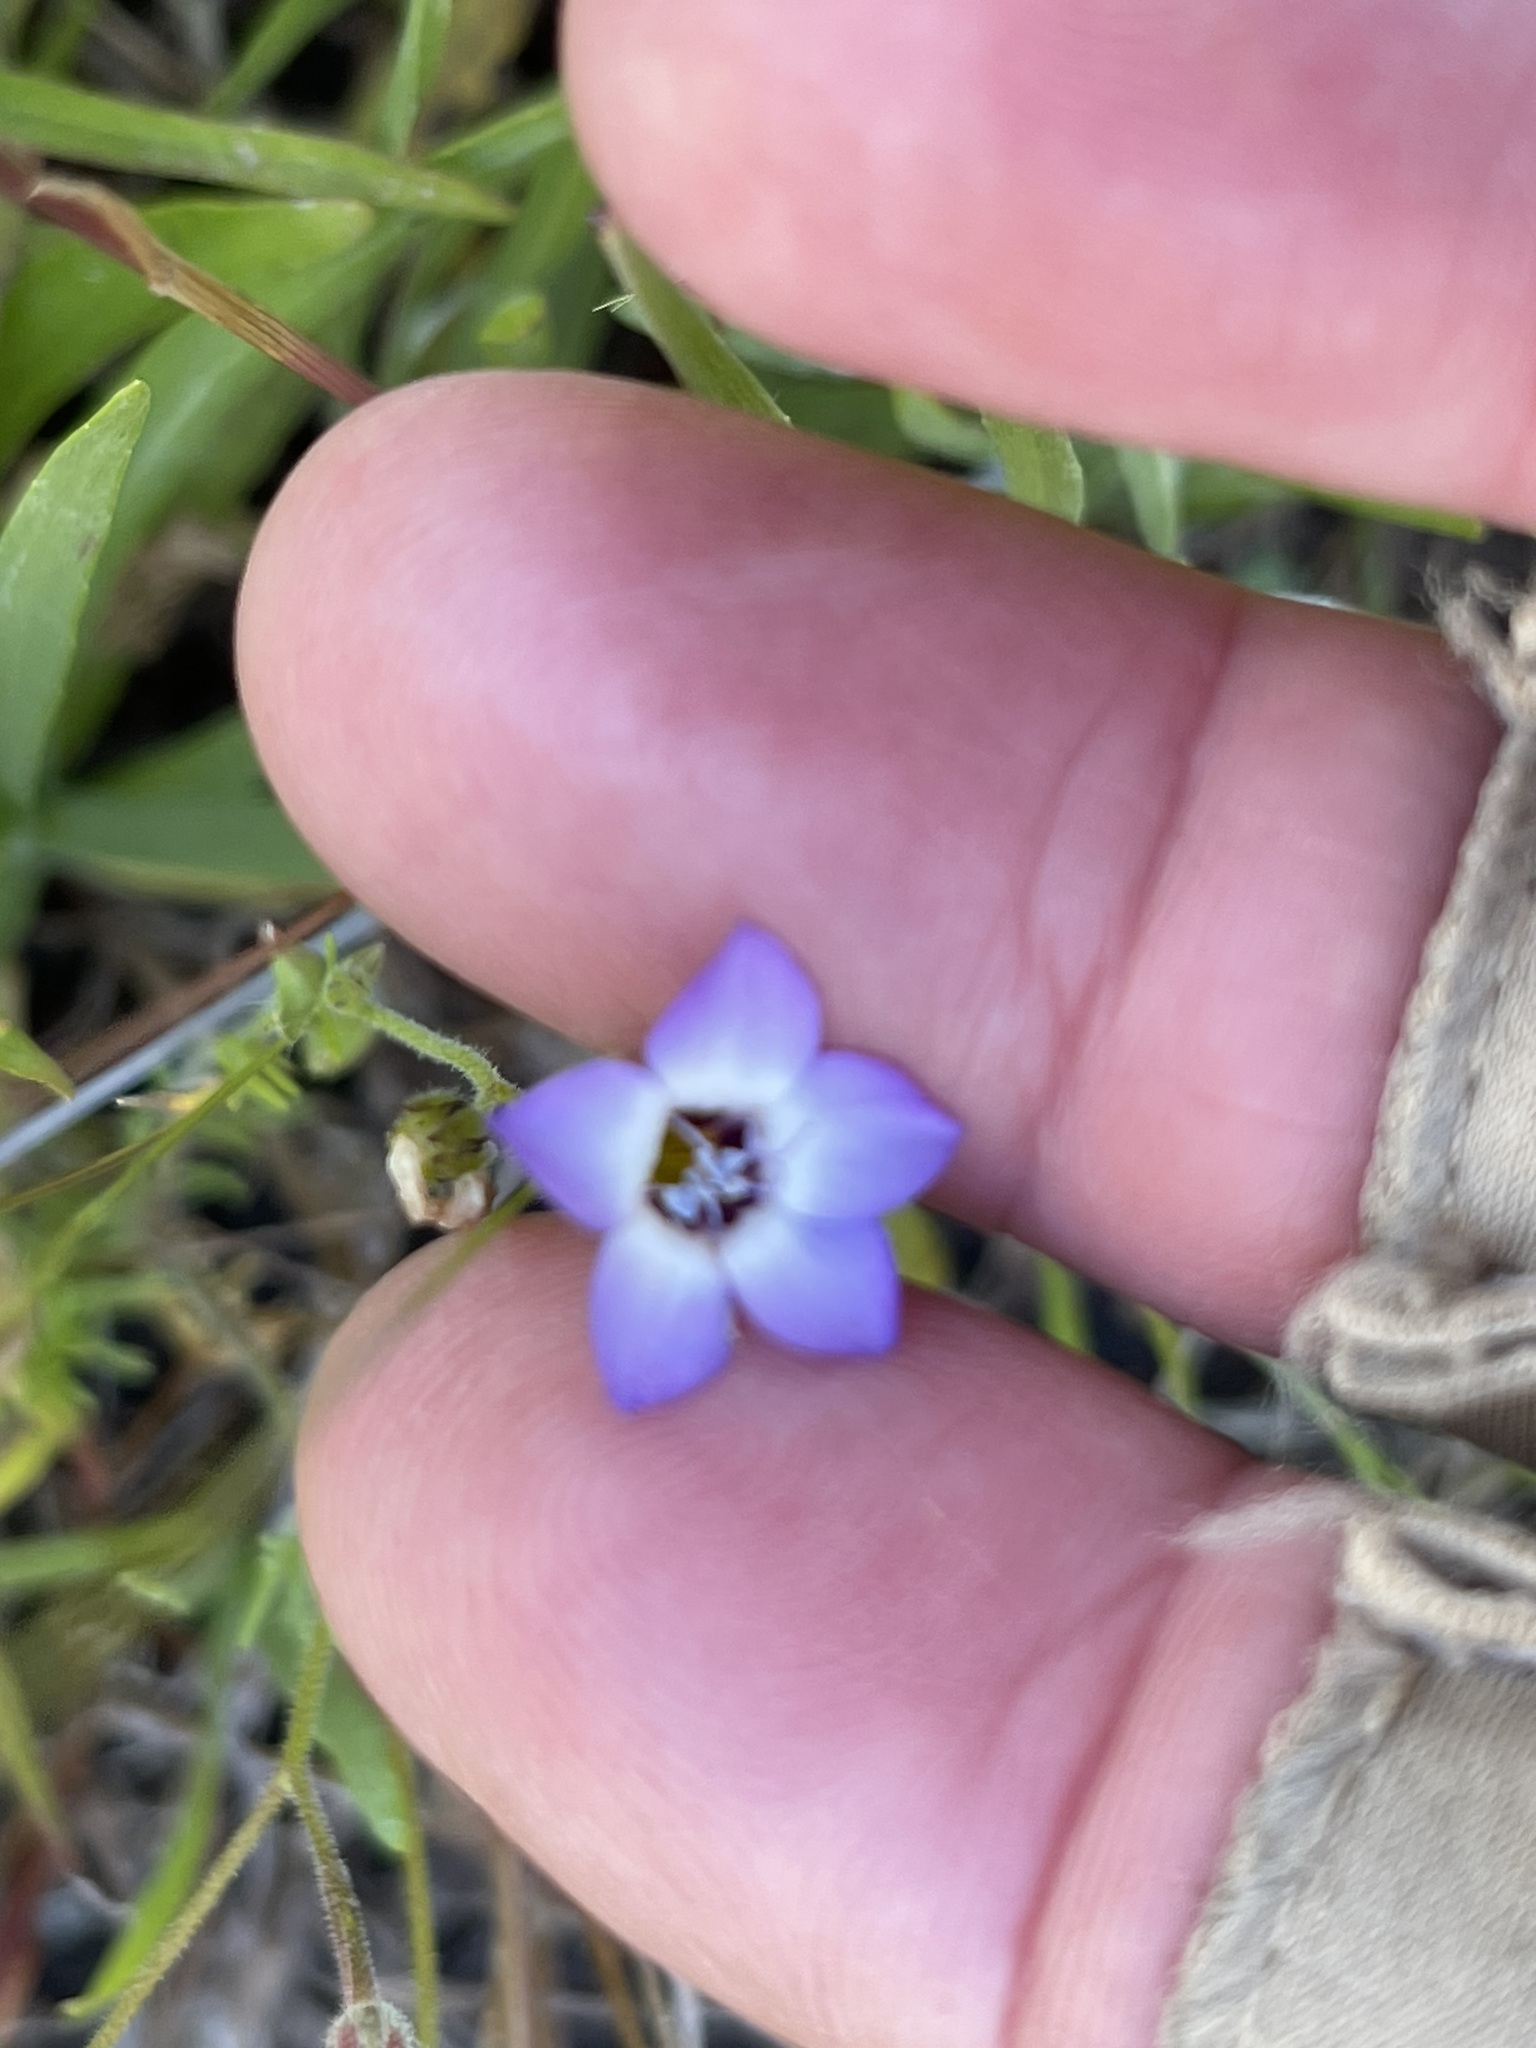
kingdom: Plantae
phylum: Tracheophyta
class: Magnoliopsida
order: Ericales
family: Polemoniaceae
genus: Gilia
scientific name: Gilia tricolor
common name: Bird's-eyes
